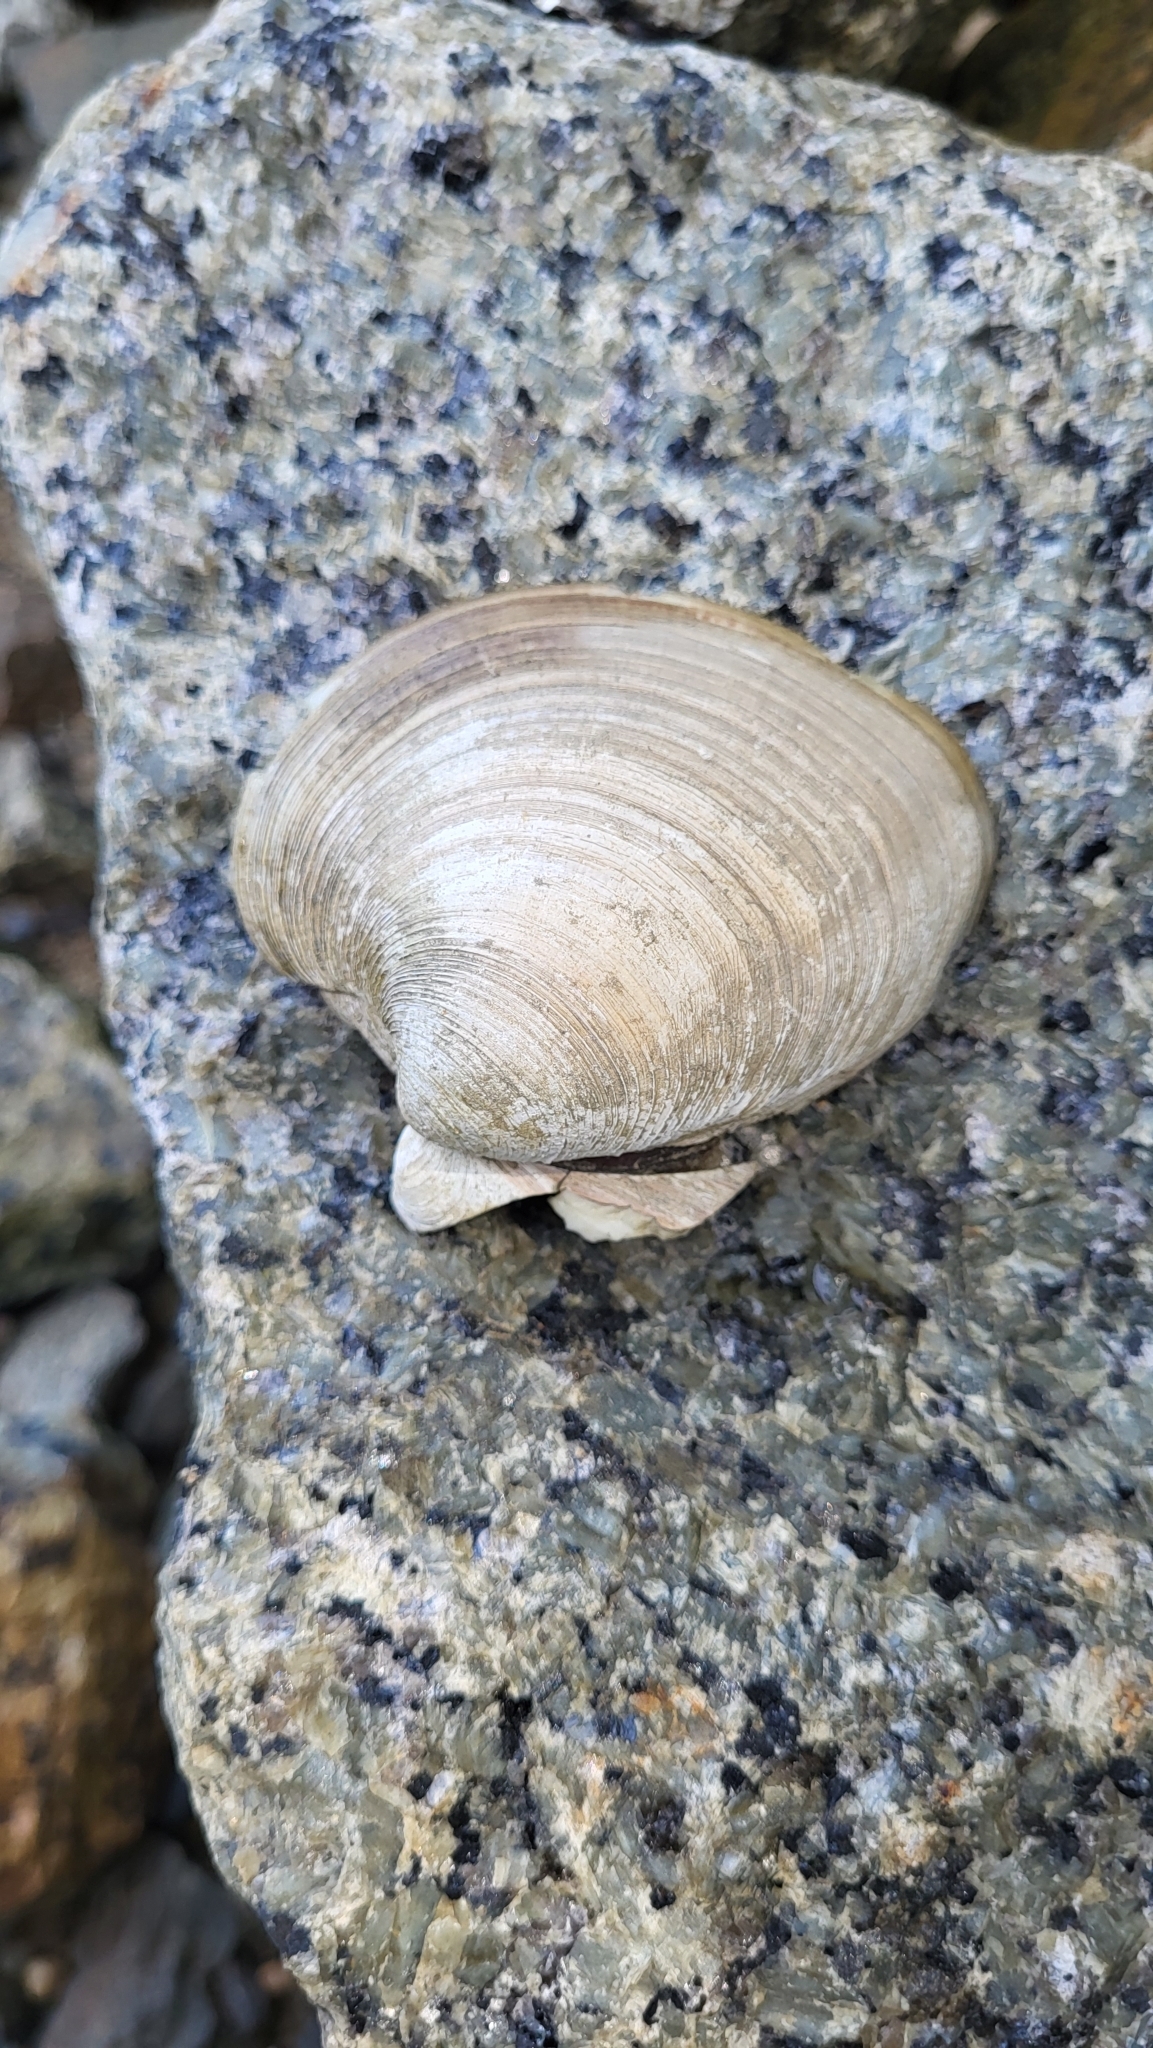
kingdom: Animalia
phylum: Mollusca
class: Bivalvia
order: Venerida
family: Veneridae
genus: Mercenaria
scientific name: Mercenaria mercenaria
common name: American hard-shelled clam
